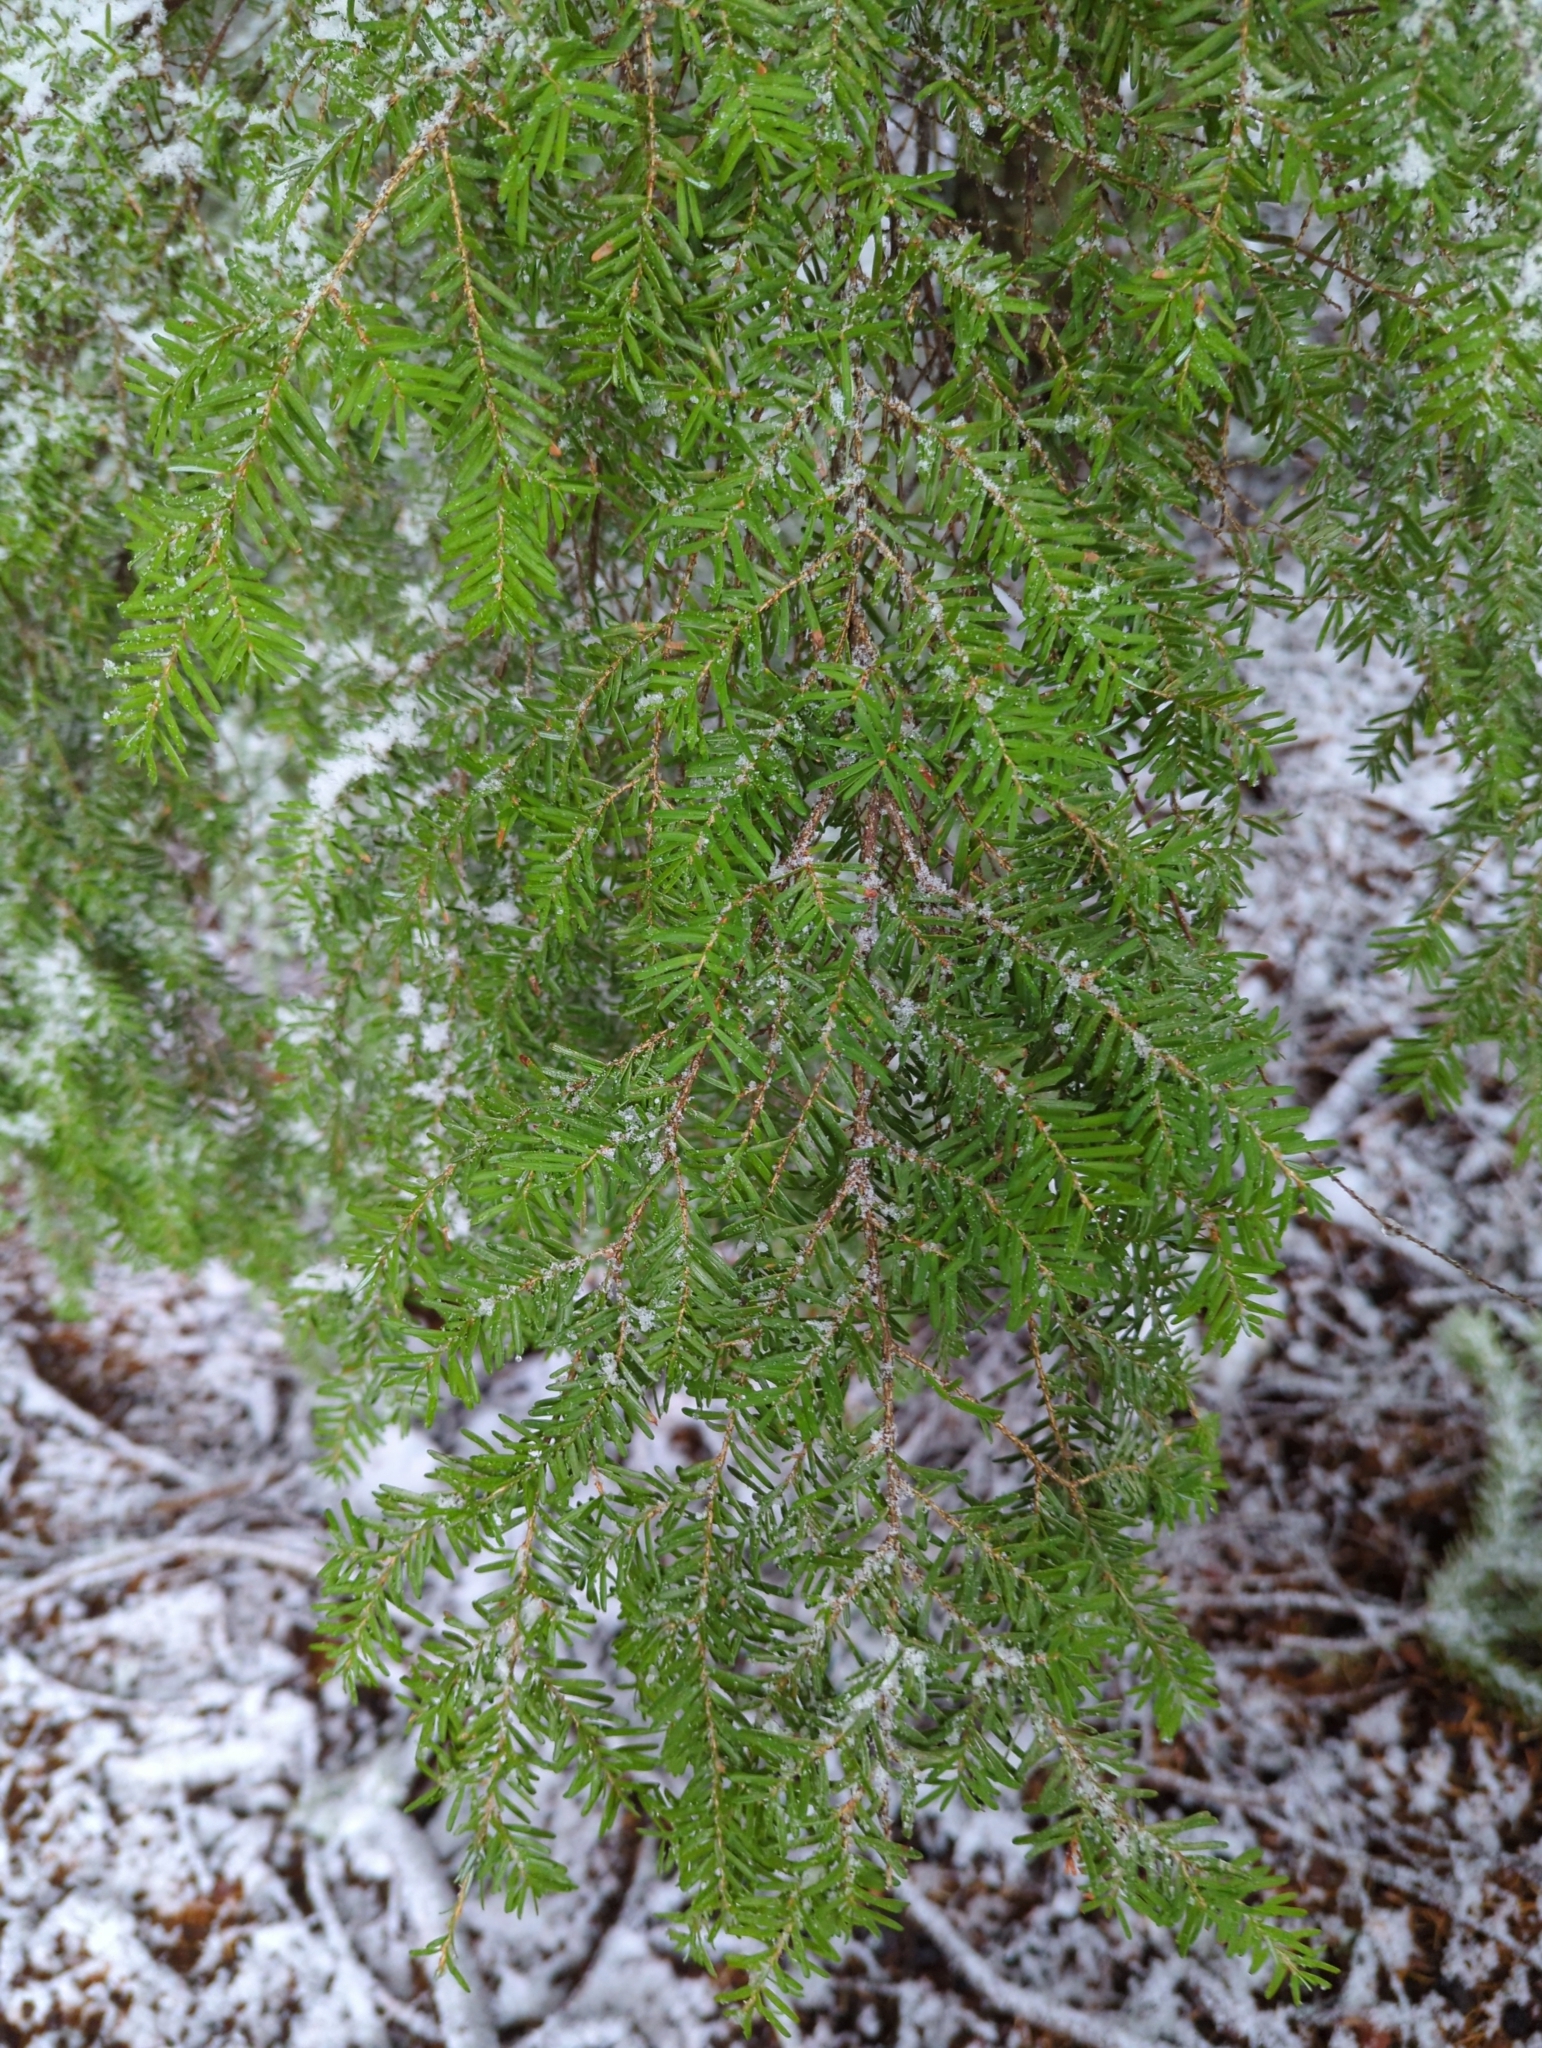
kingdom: Plantae
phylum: Tracheophyta
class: Pinopsida
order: Pinales
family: Pinaceae
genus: Tsuga
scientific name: Tsuga heterophylla
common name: Western hemlock
